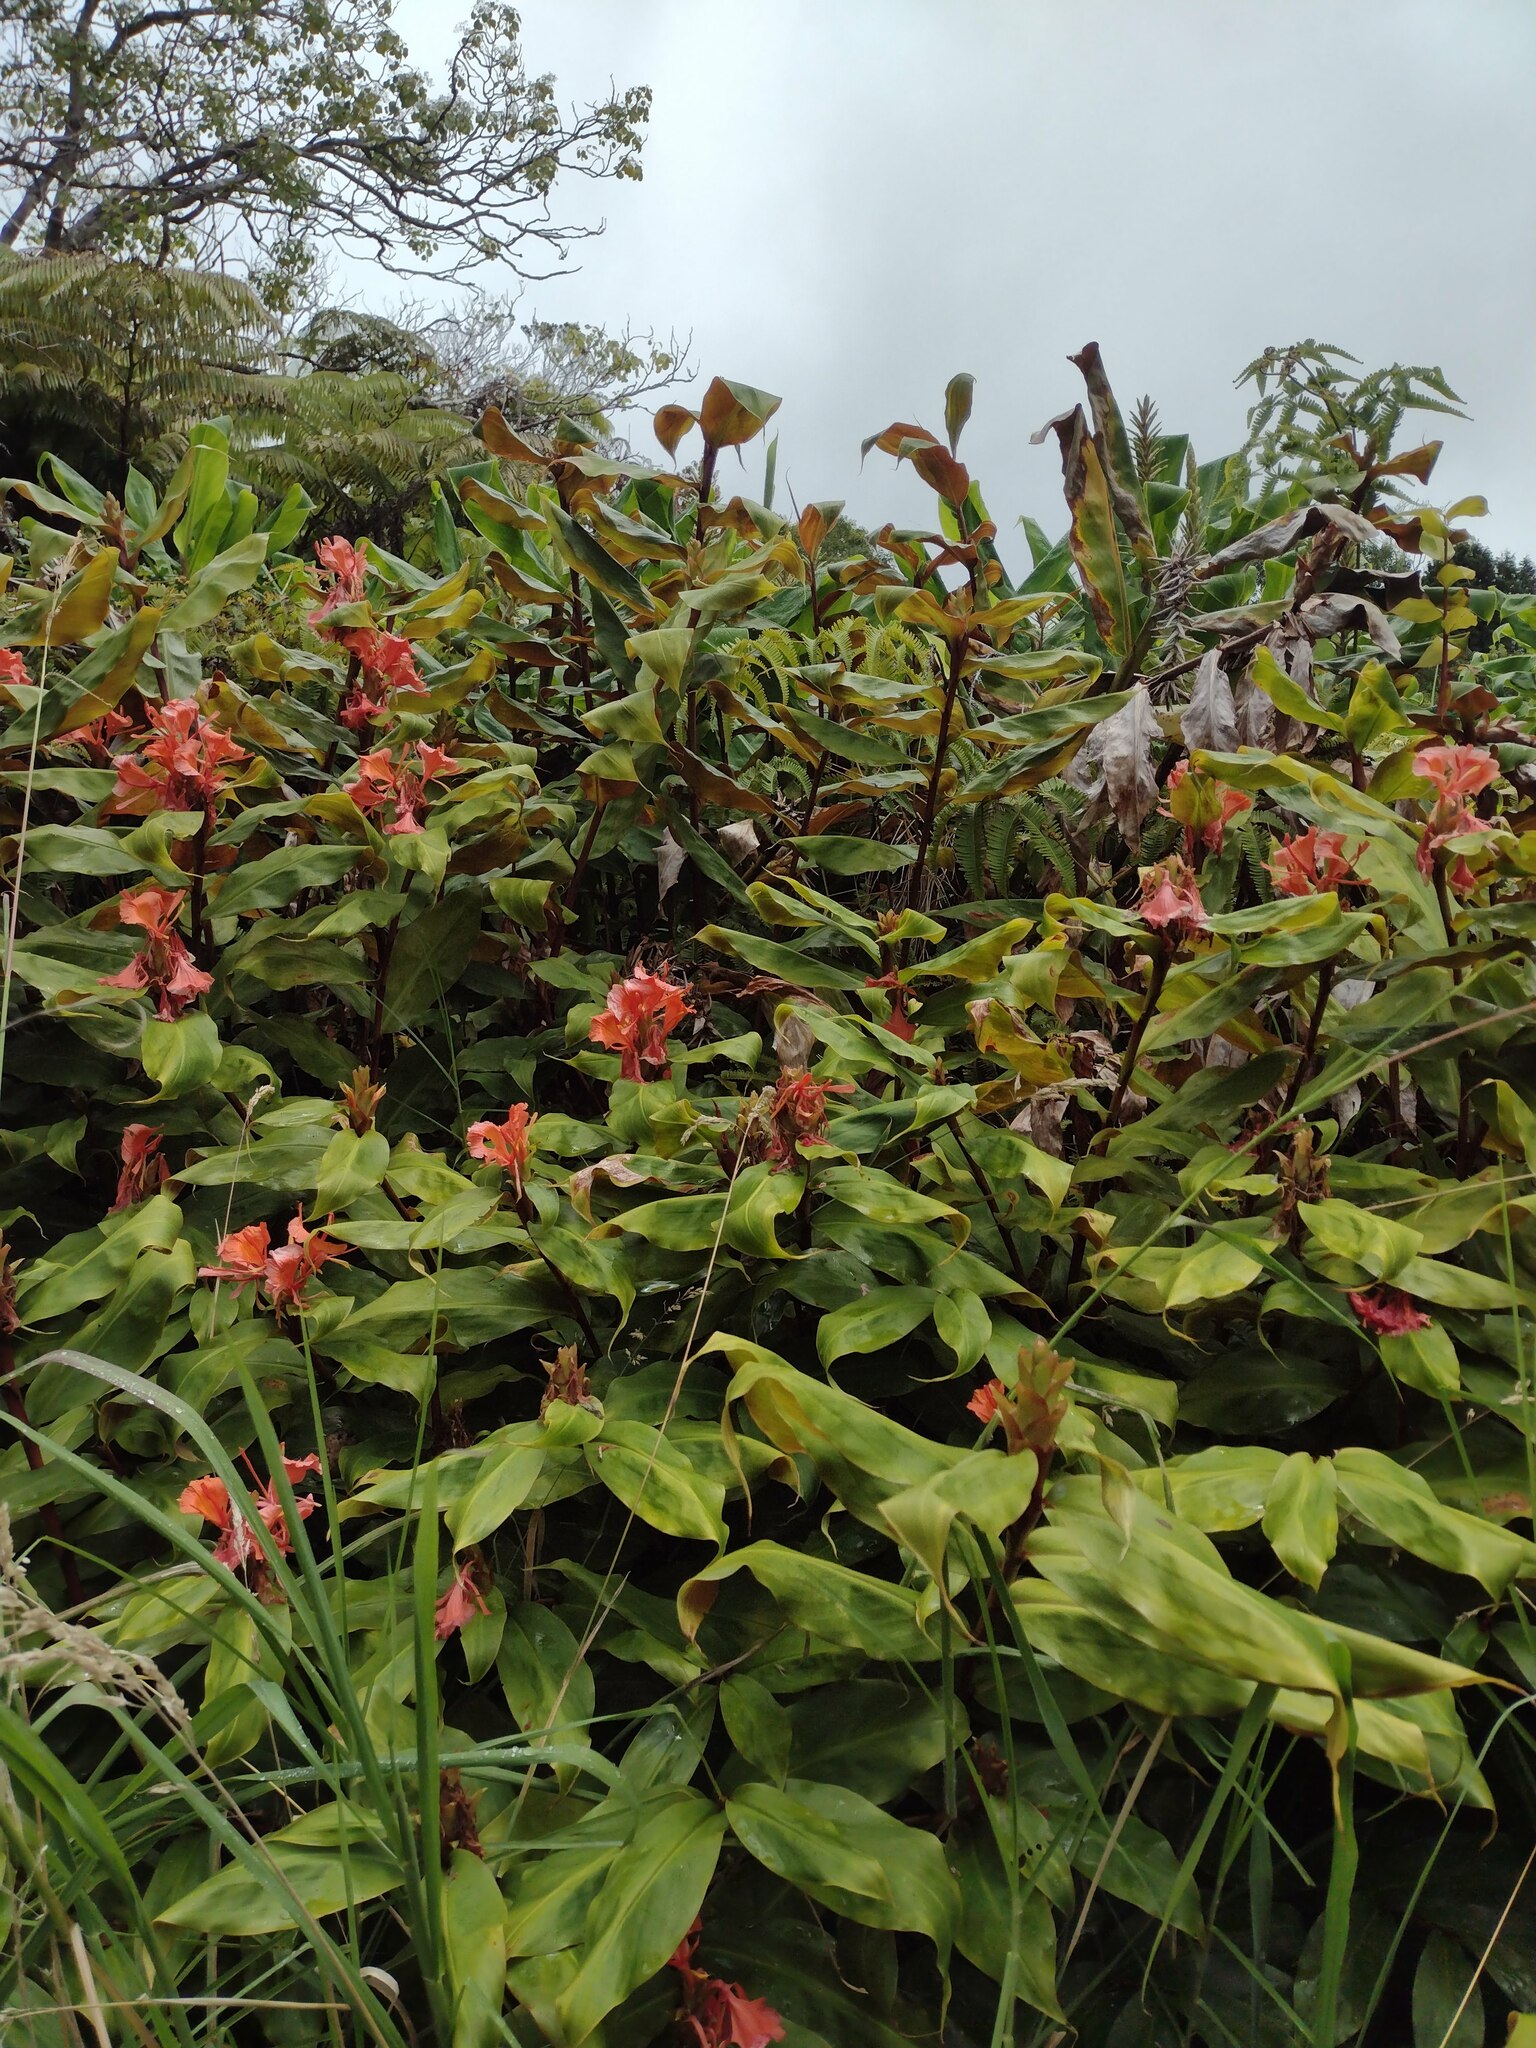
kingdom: Plantae
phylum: Tracheophyta
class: Liliopsida
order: Zingiberales
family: Zingiberaceae
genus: Hedychium
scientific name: Hedychium greenii
